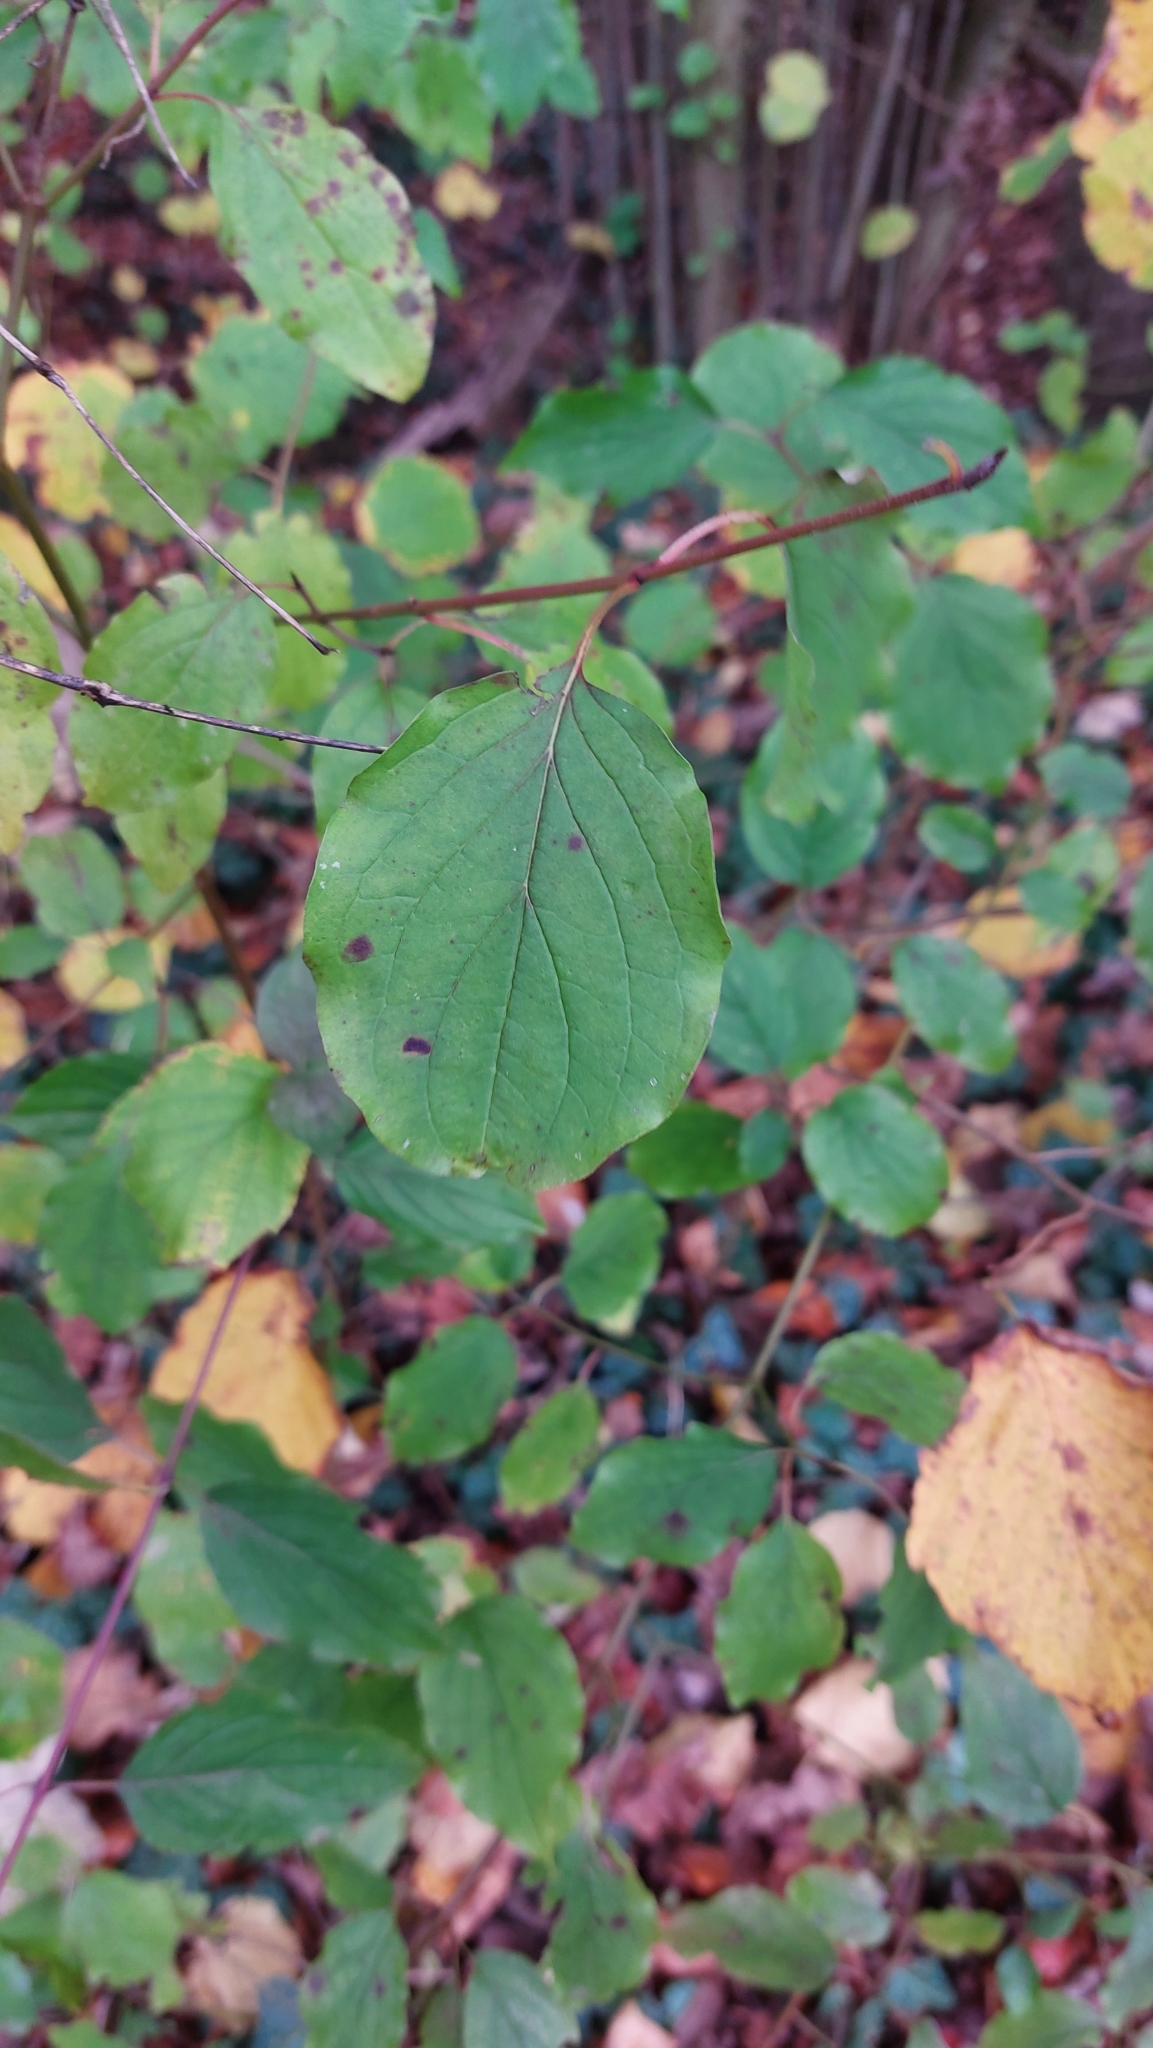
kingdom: Plantae
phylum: Tracheophyta
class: Magnoliopsida
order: Cornales
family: Cornaceae
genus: Cornus
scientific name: Cornus sanguinea
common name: Dogwood
